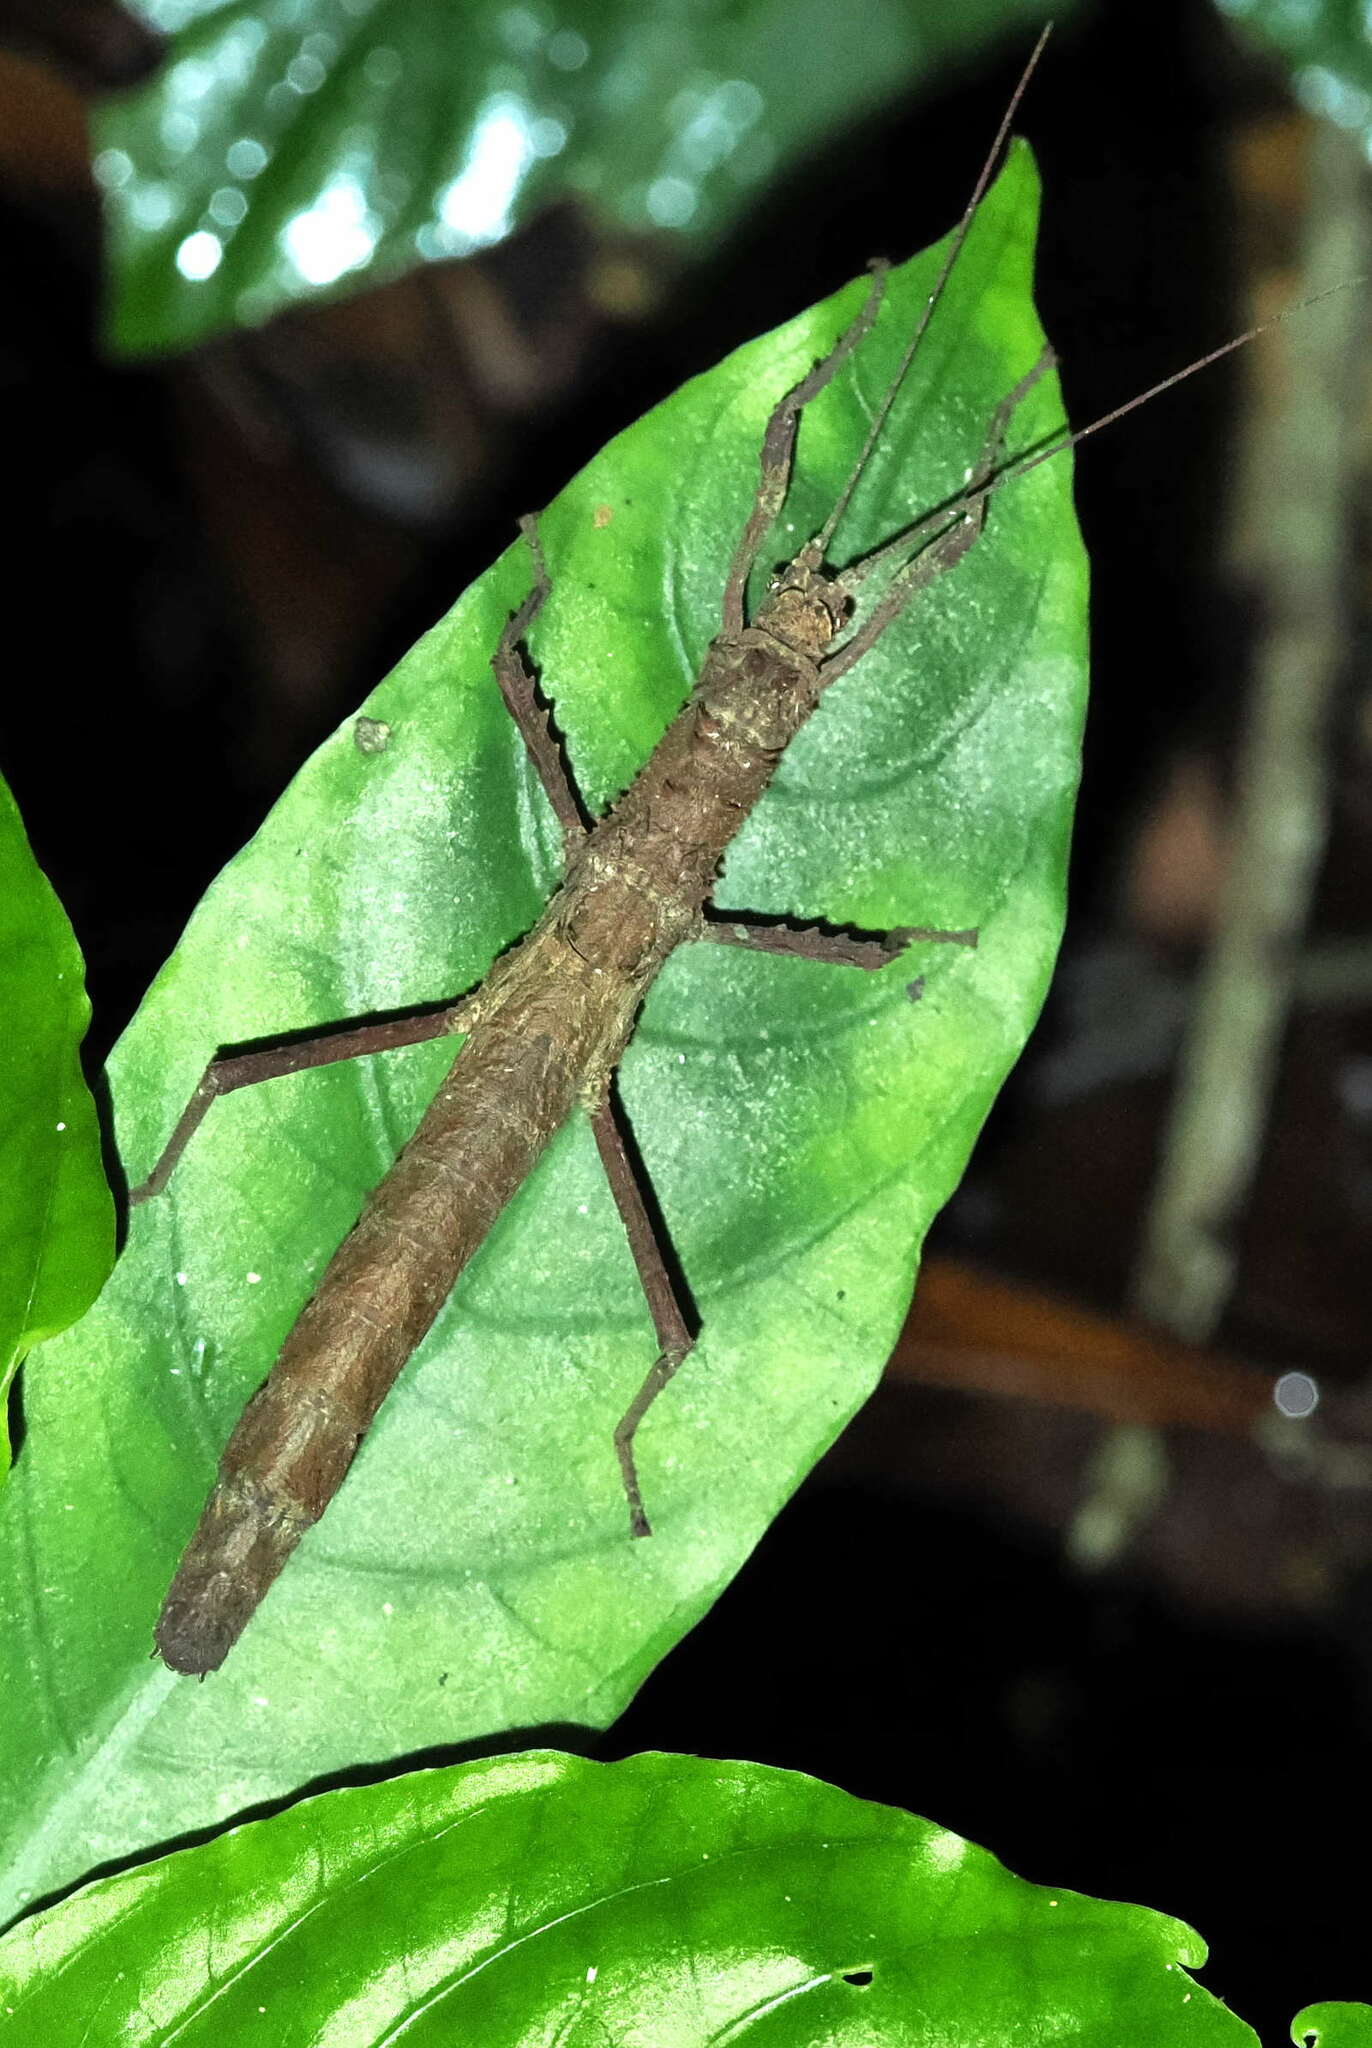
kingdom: Animalia
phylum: Arthropoda
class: Insecta
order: Phasmida
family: Pseudophasmatidae
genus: Creoxylus
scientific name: Creoxylus spinosus
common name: Trinidad log stick insect
